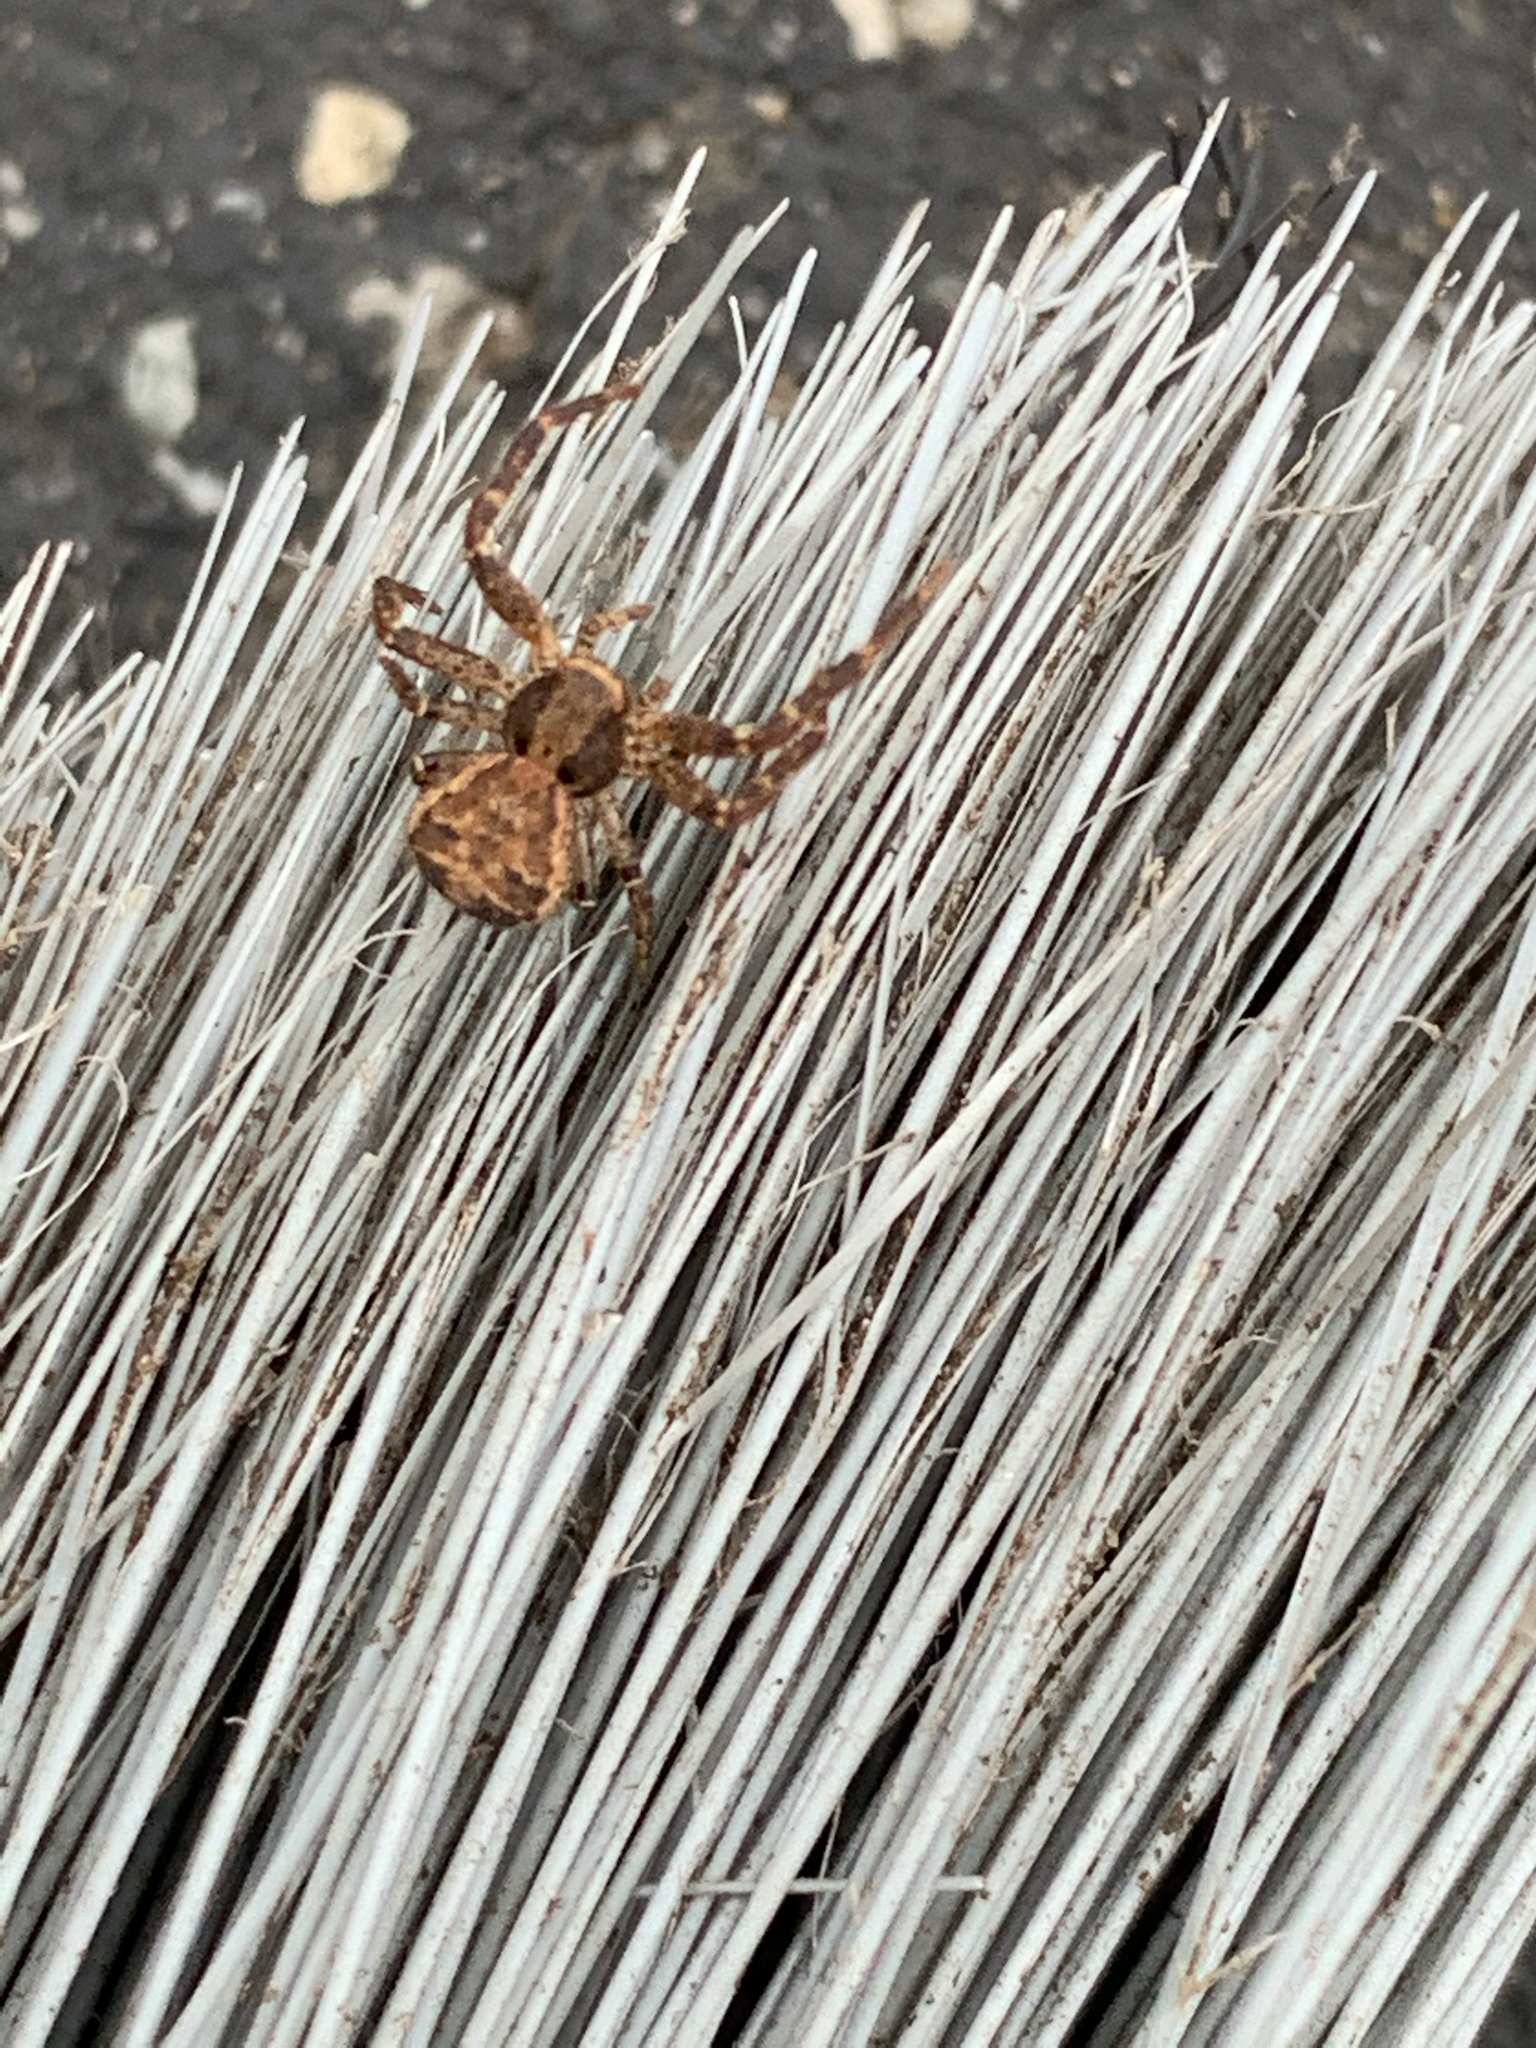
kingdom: Animalia
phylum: Arthropoda
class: Arachnida
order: Araneae
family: Thomisidae
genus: Xysticus
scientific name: Xysticus
